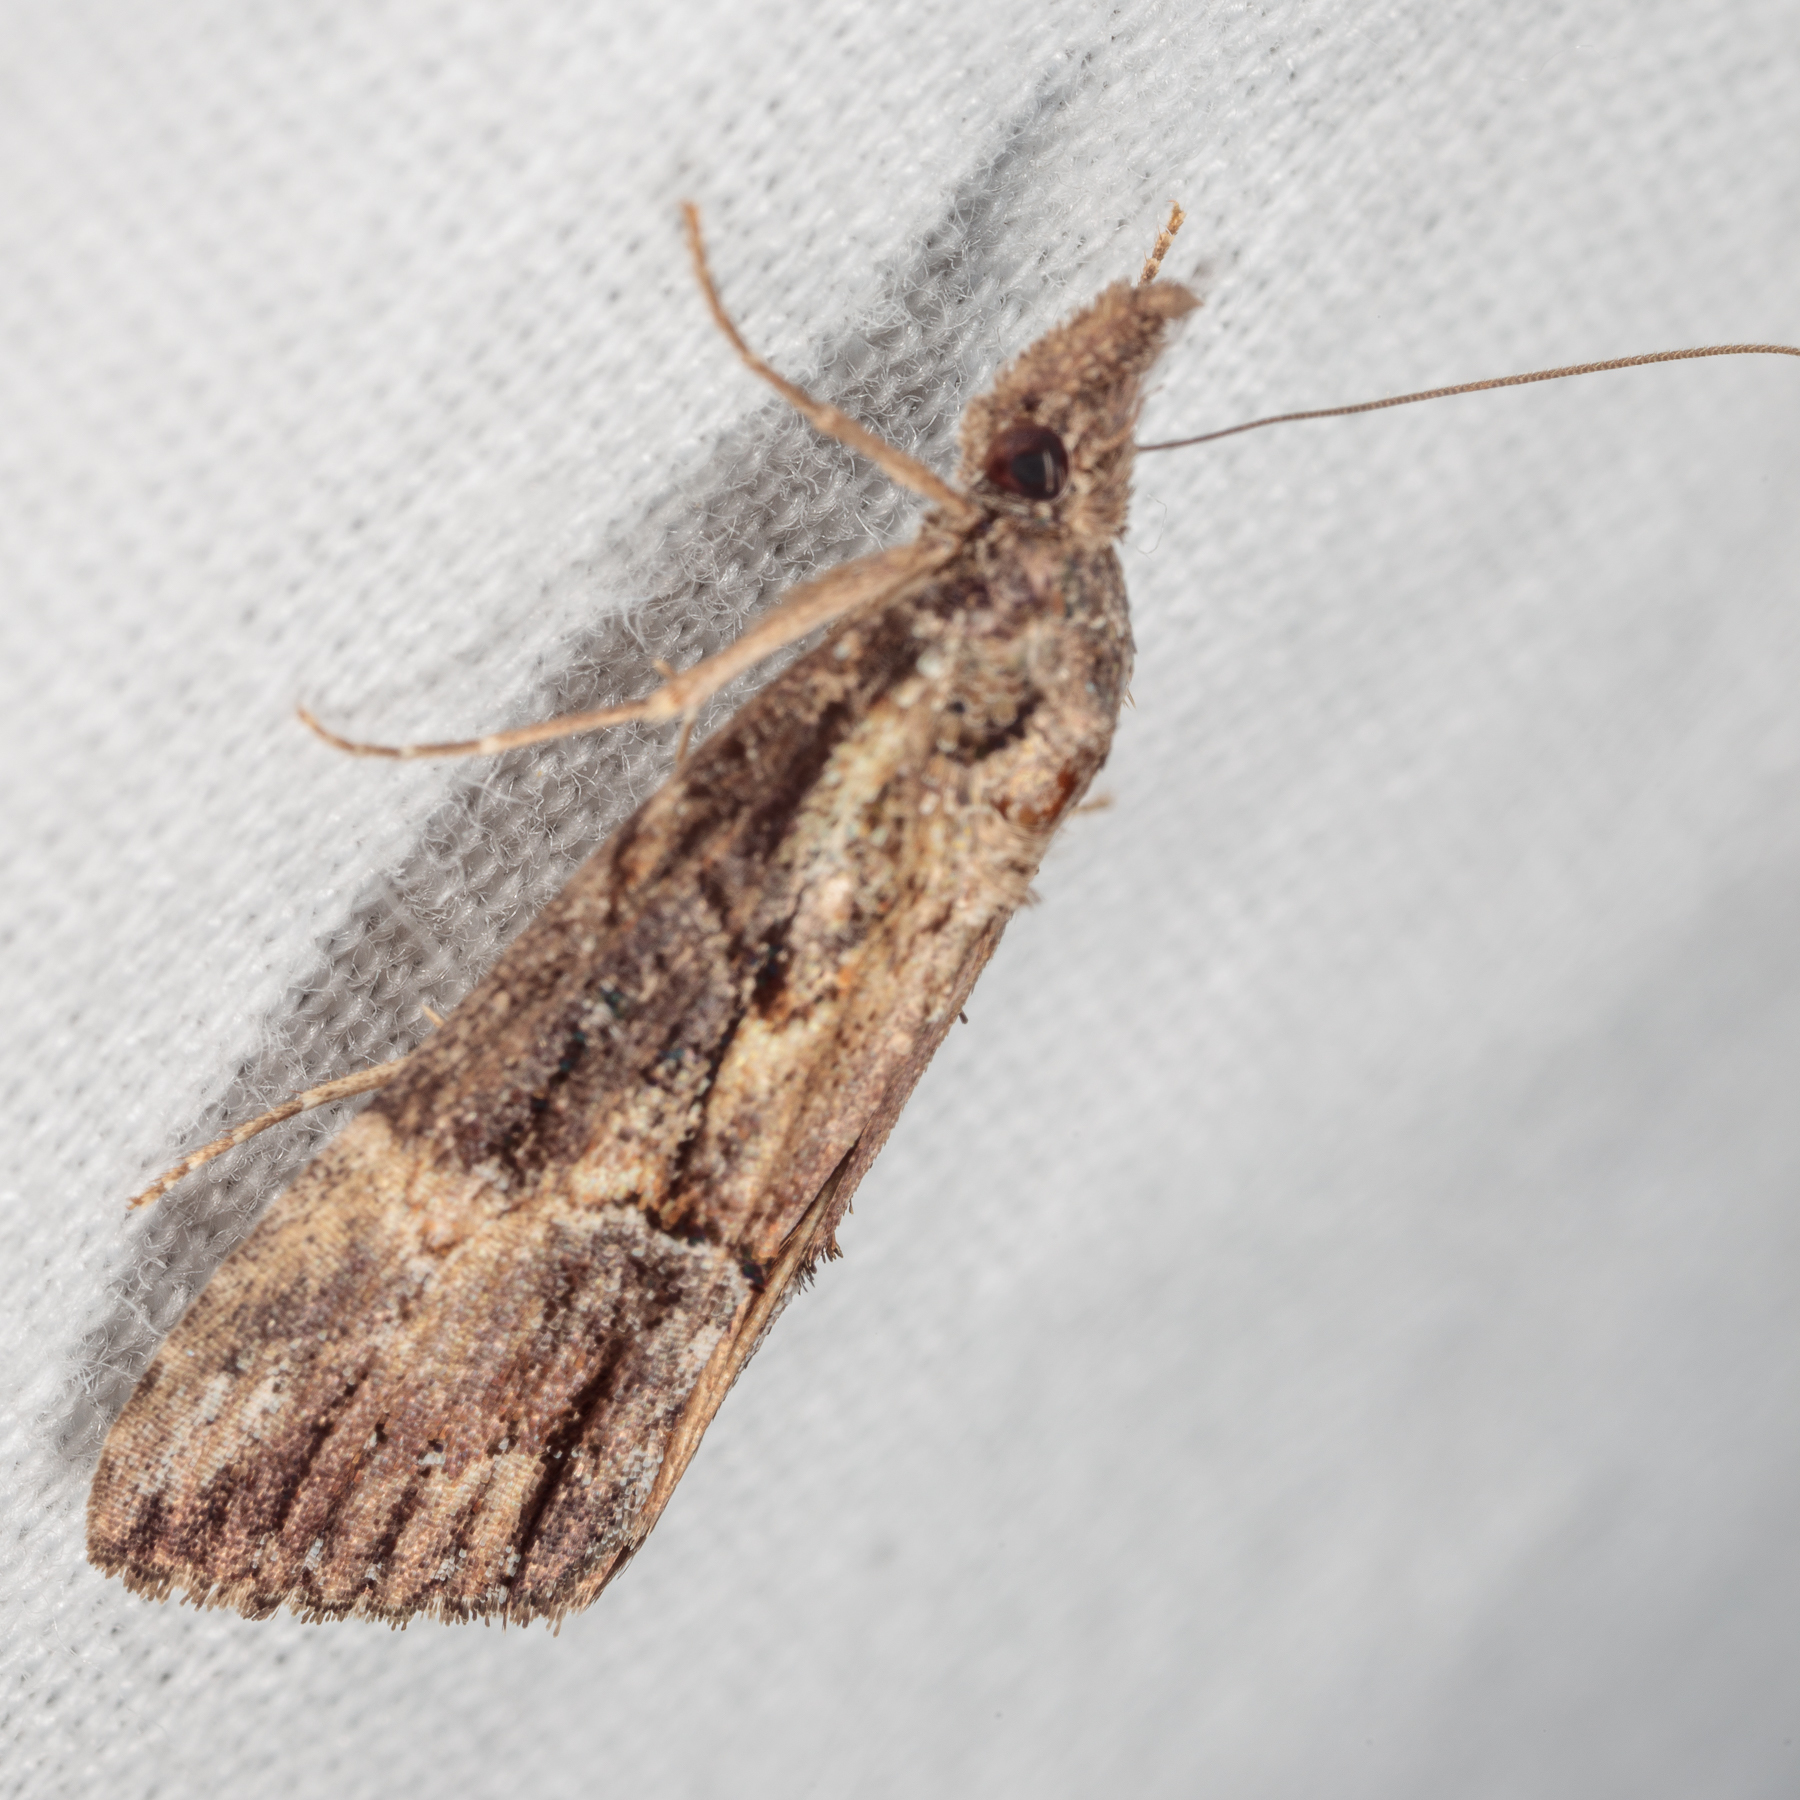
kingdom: Animalia
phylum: Arthropoda
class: Insecta
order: Lepidoptera
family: Erebidae
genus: Hypena
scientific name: Hypena scabra
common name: Green cloverworm
